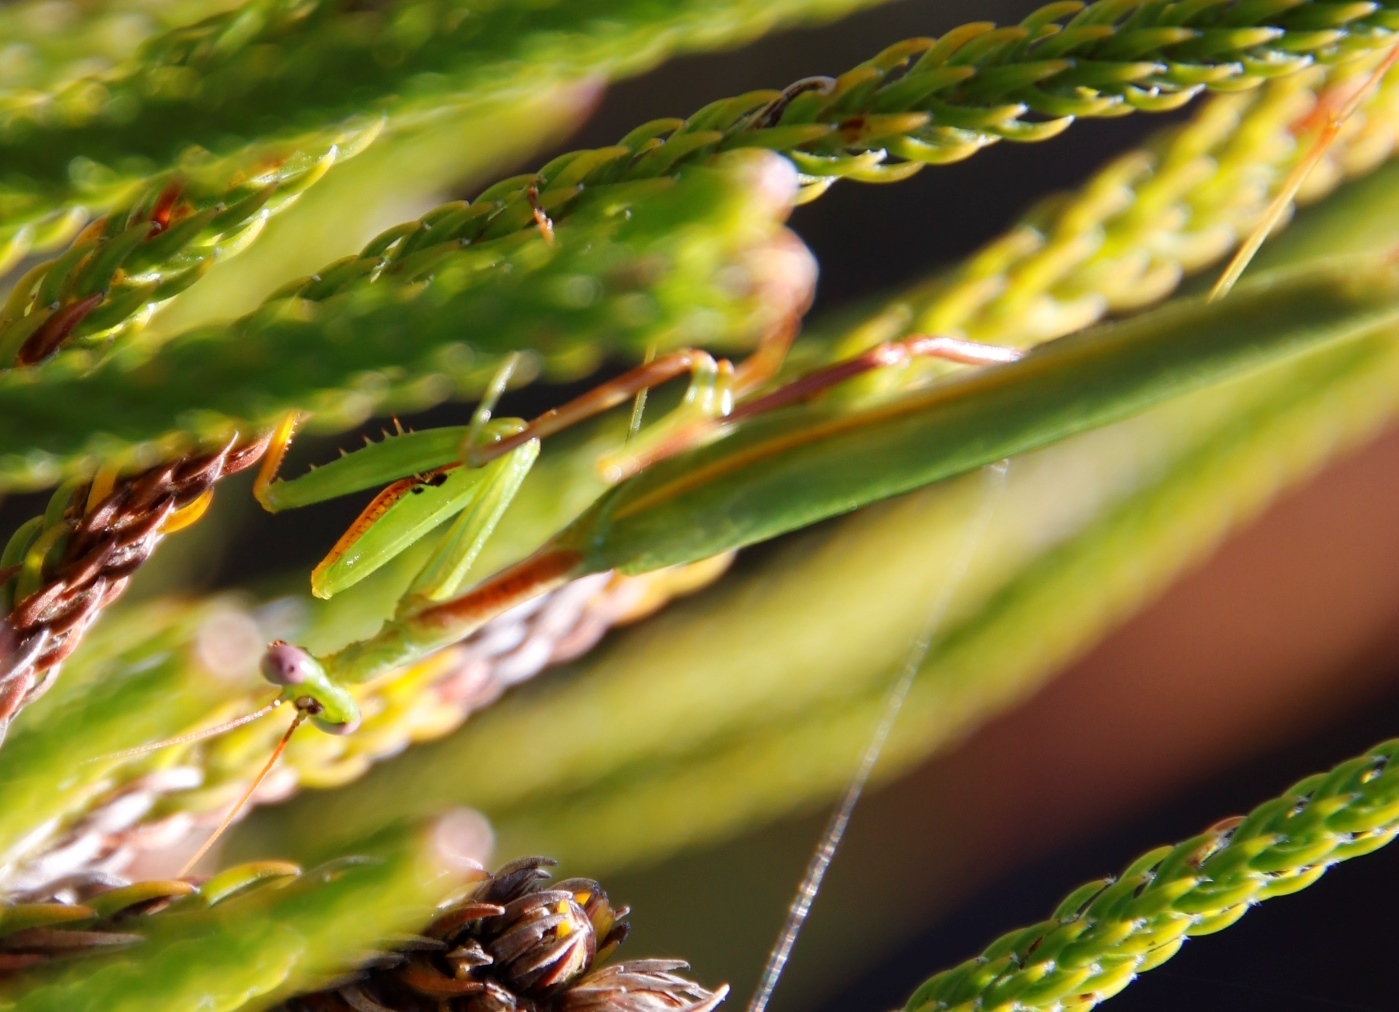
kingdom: Animalia
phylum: Arthropoda
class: Insecta
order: Mantodea
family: Miomantidae
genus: Miomantis
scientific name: Miomantis caffra
